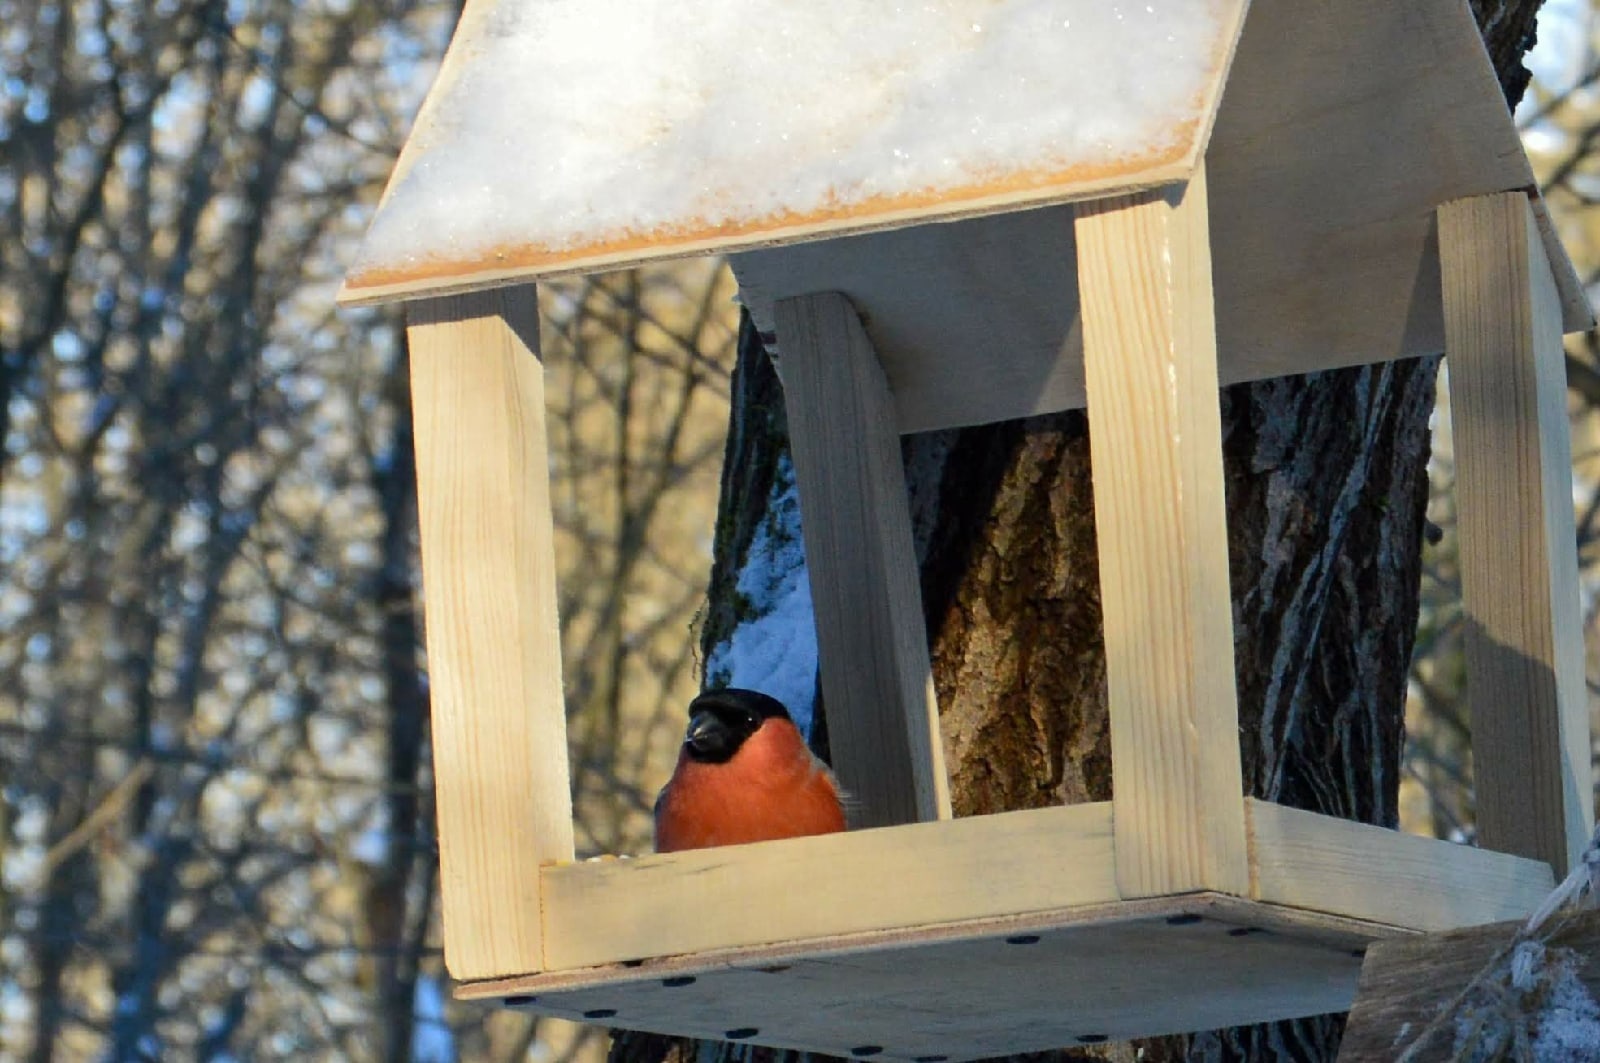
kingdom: Animalia
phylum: Chordata
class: Aves
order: Passeriformes
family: Fringillidae
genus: Pyrrhula
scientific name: Pyrrhula pyrrhula
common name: Eurasian bullfinch
